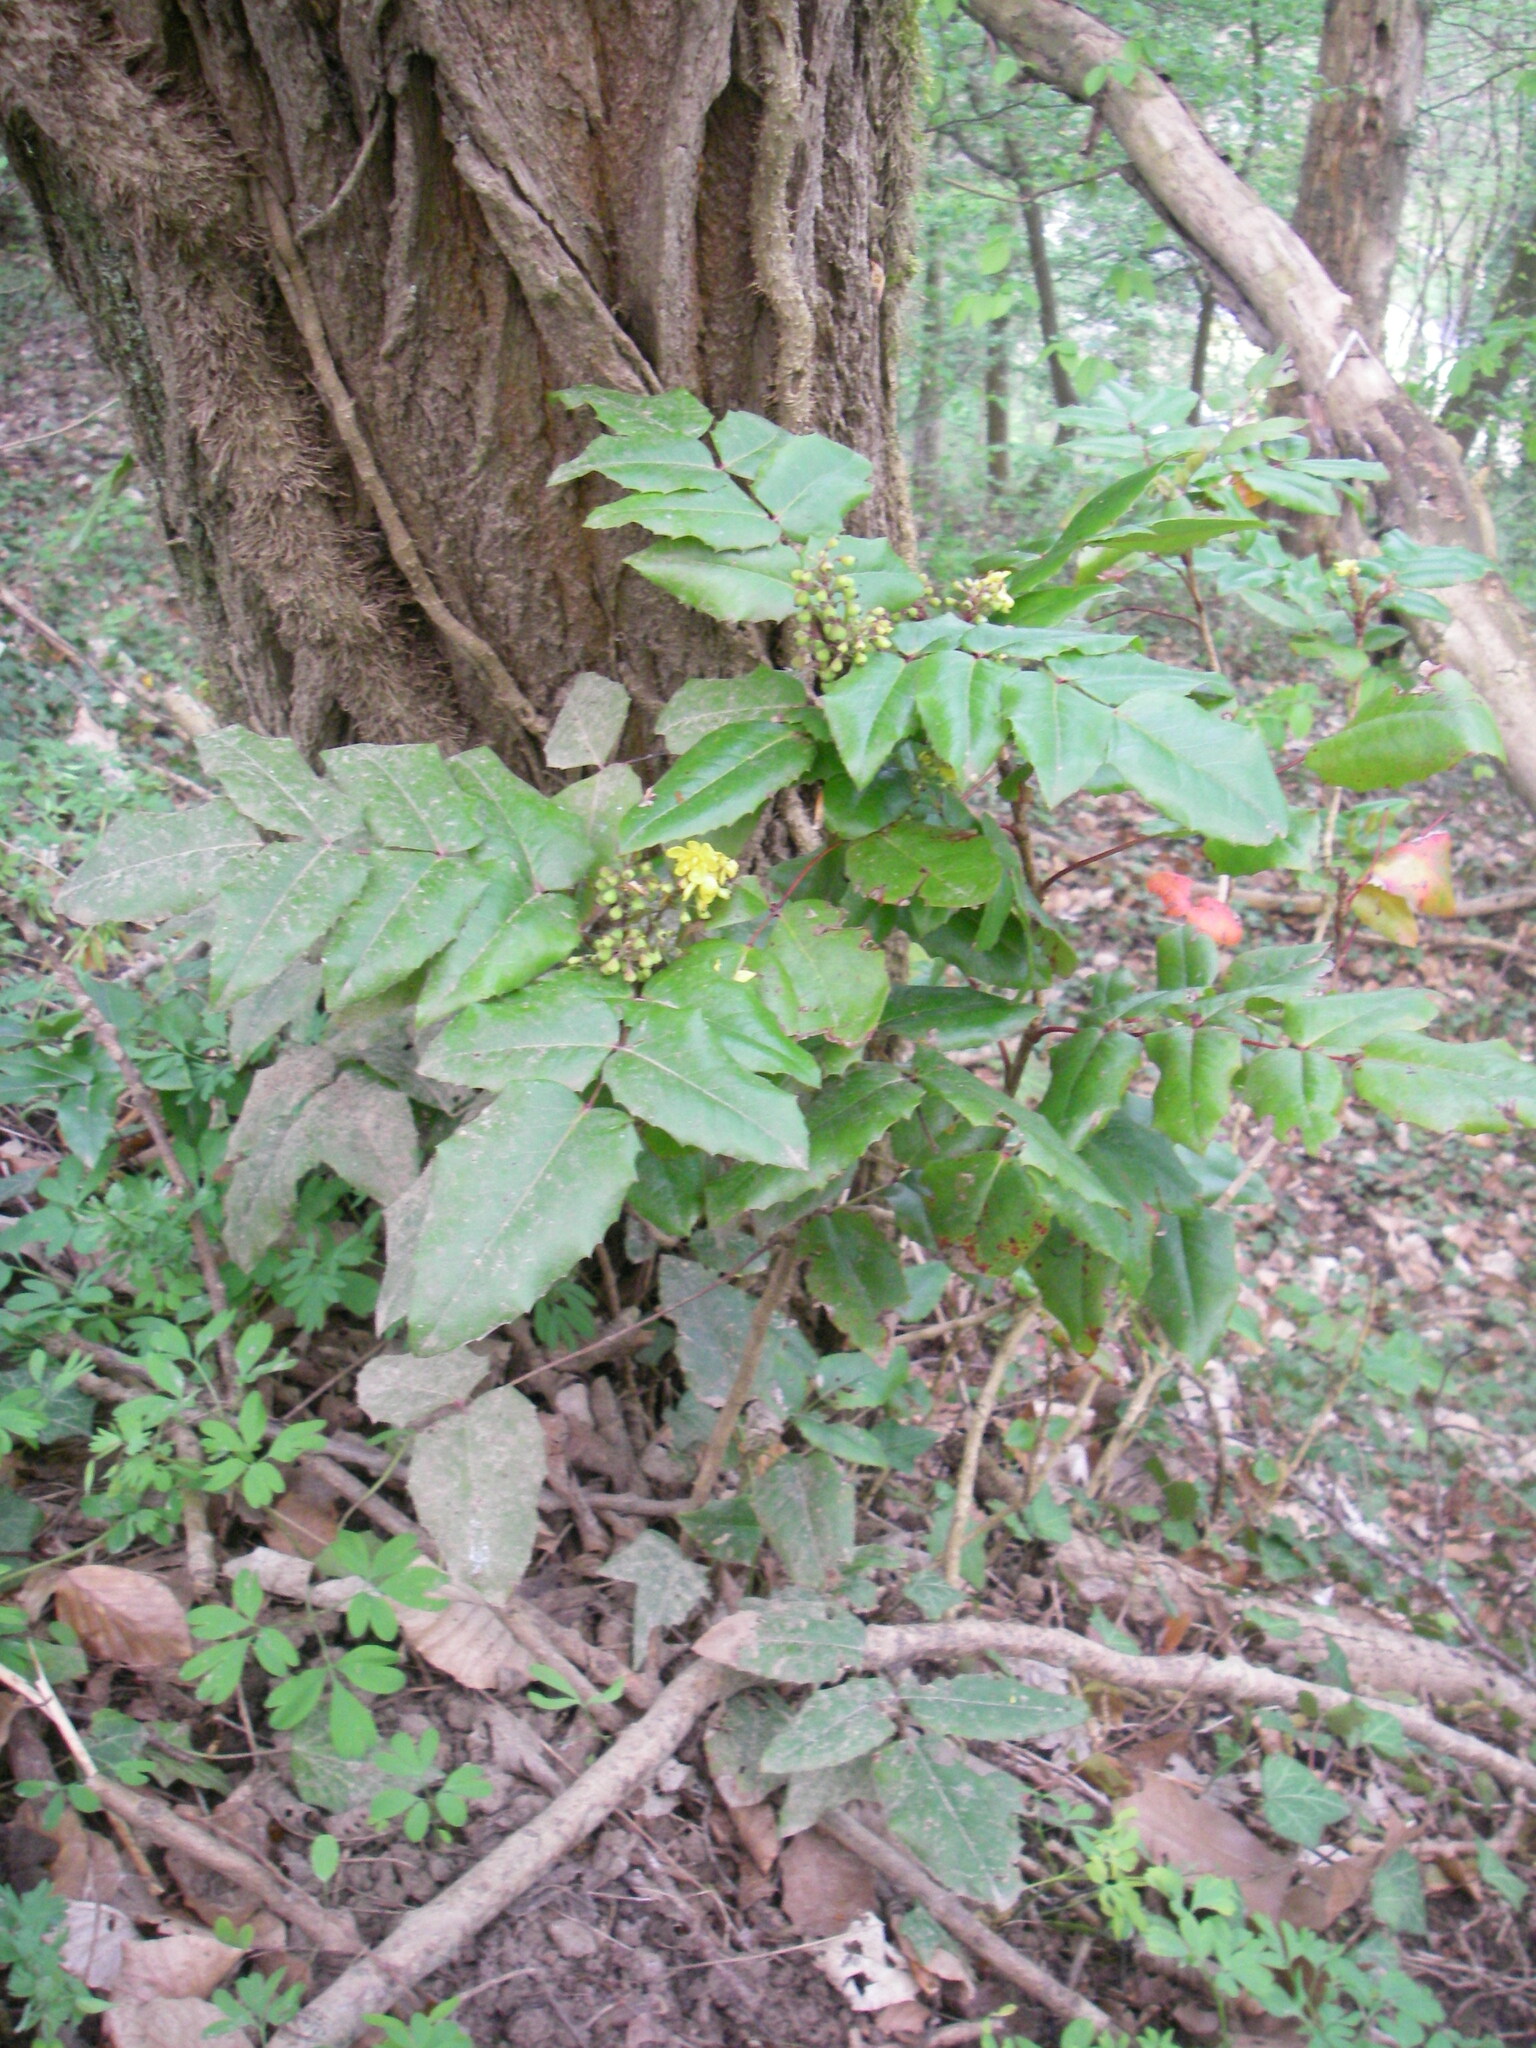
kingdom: Plantae
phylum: Tracheophyta
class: Magnoliopsida
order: Ranunculales
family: Berberidaceae
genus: Mahonia
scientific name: Mahonia aquifolium
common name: Oregon-grape
